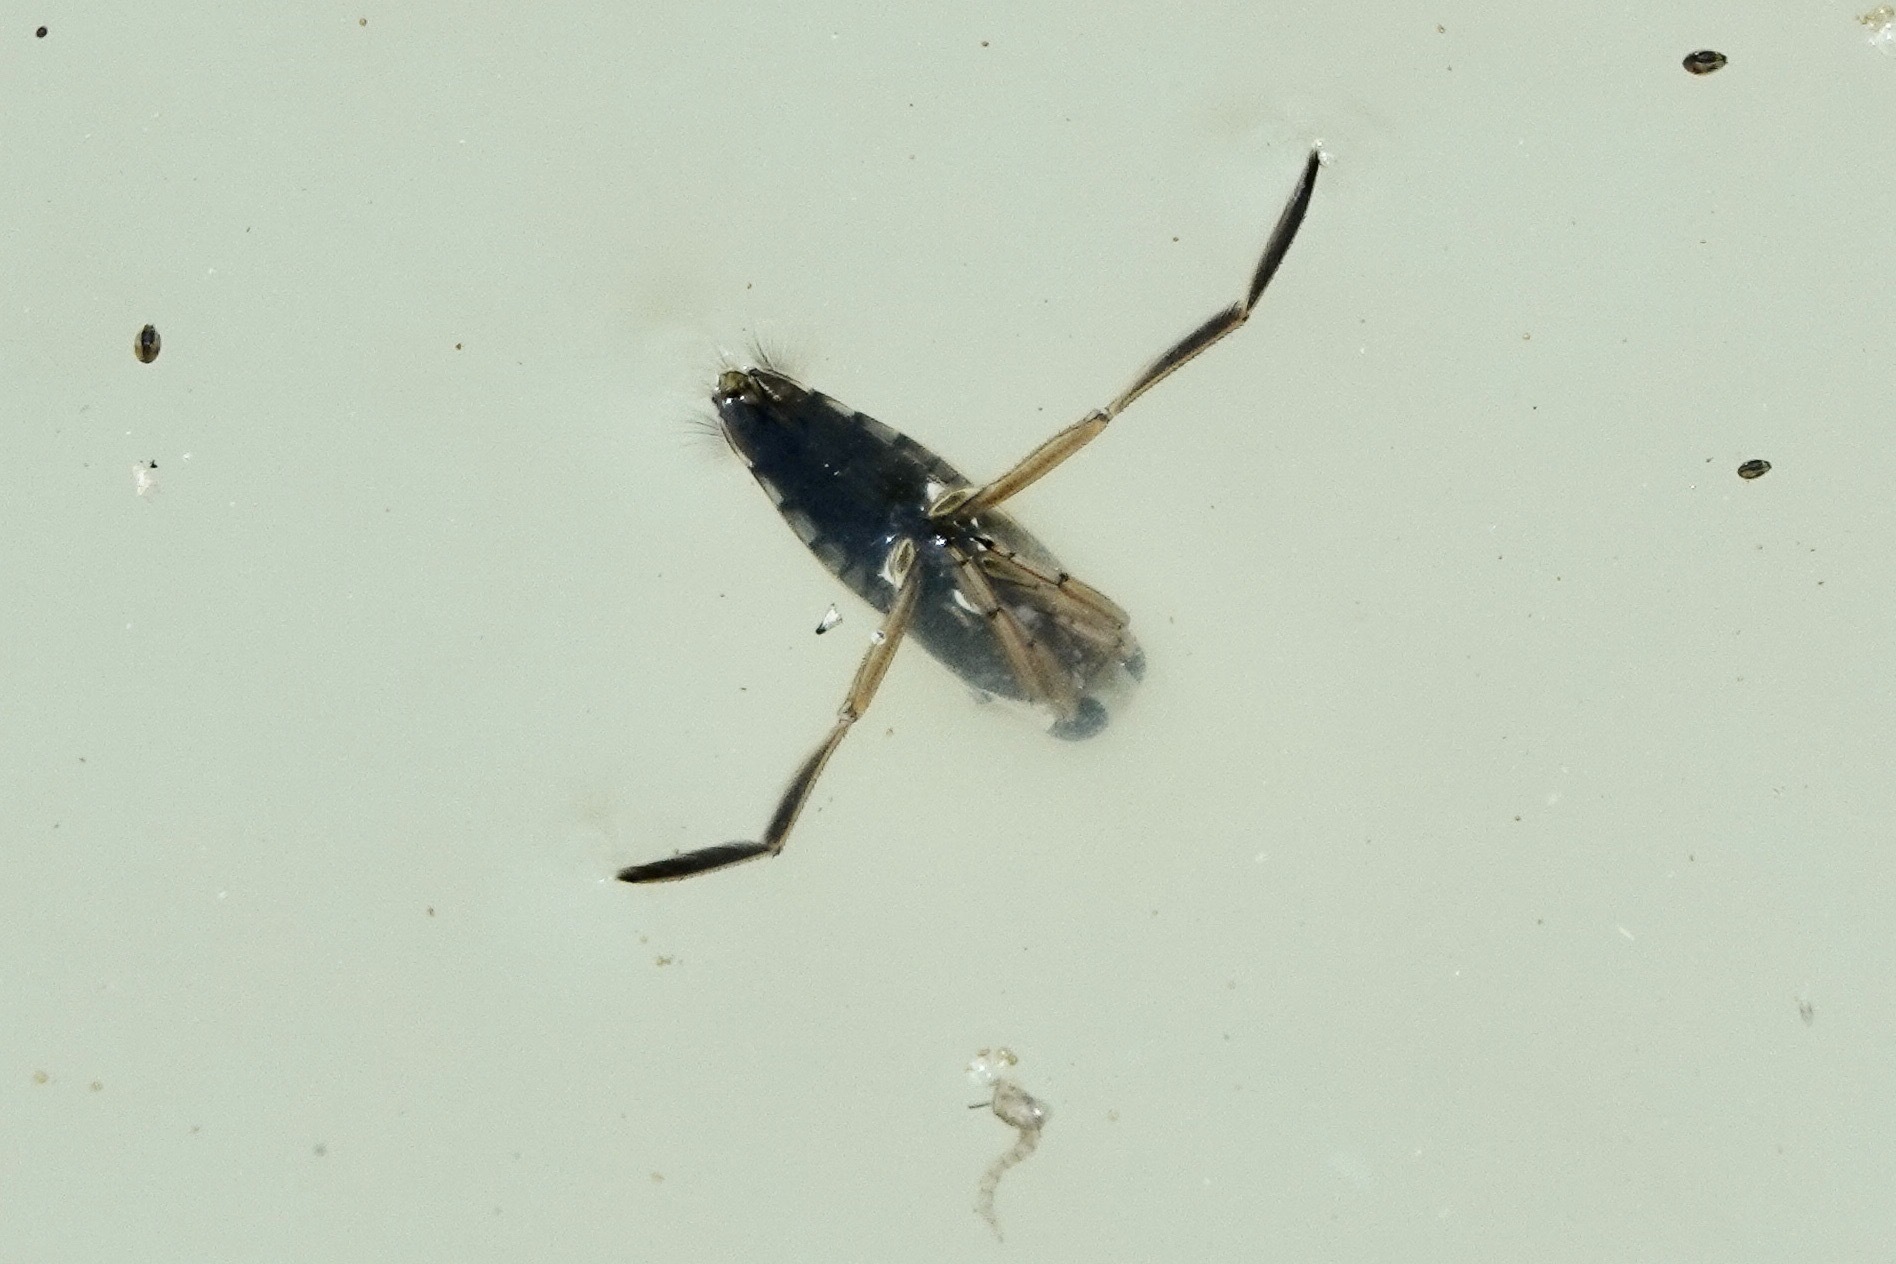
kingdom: Animalia
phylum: Arthropoda
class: Insecta
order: Hemiptera
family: Notonectidae
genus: Notonecta
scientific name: Notonecta
